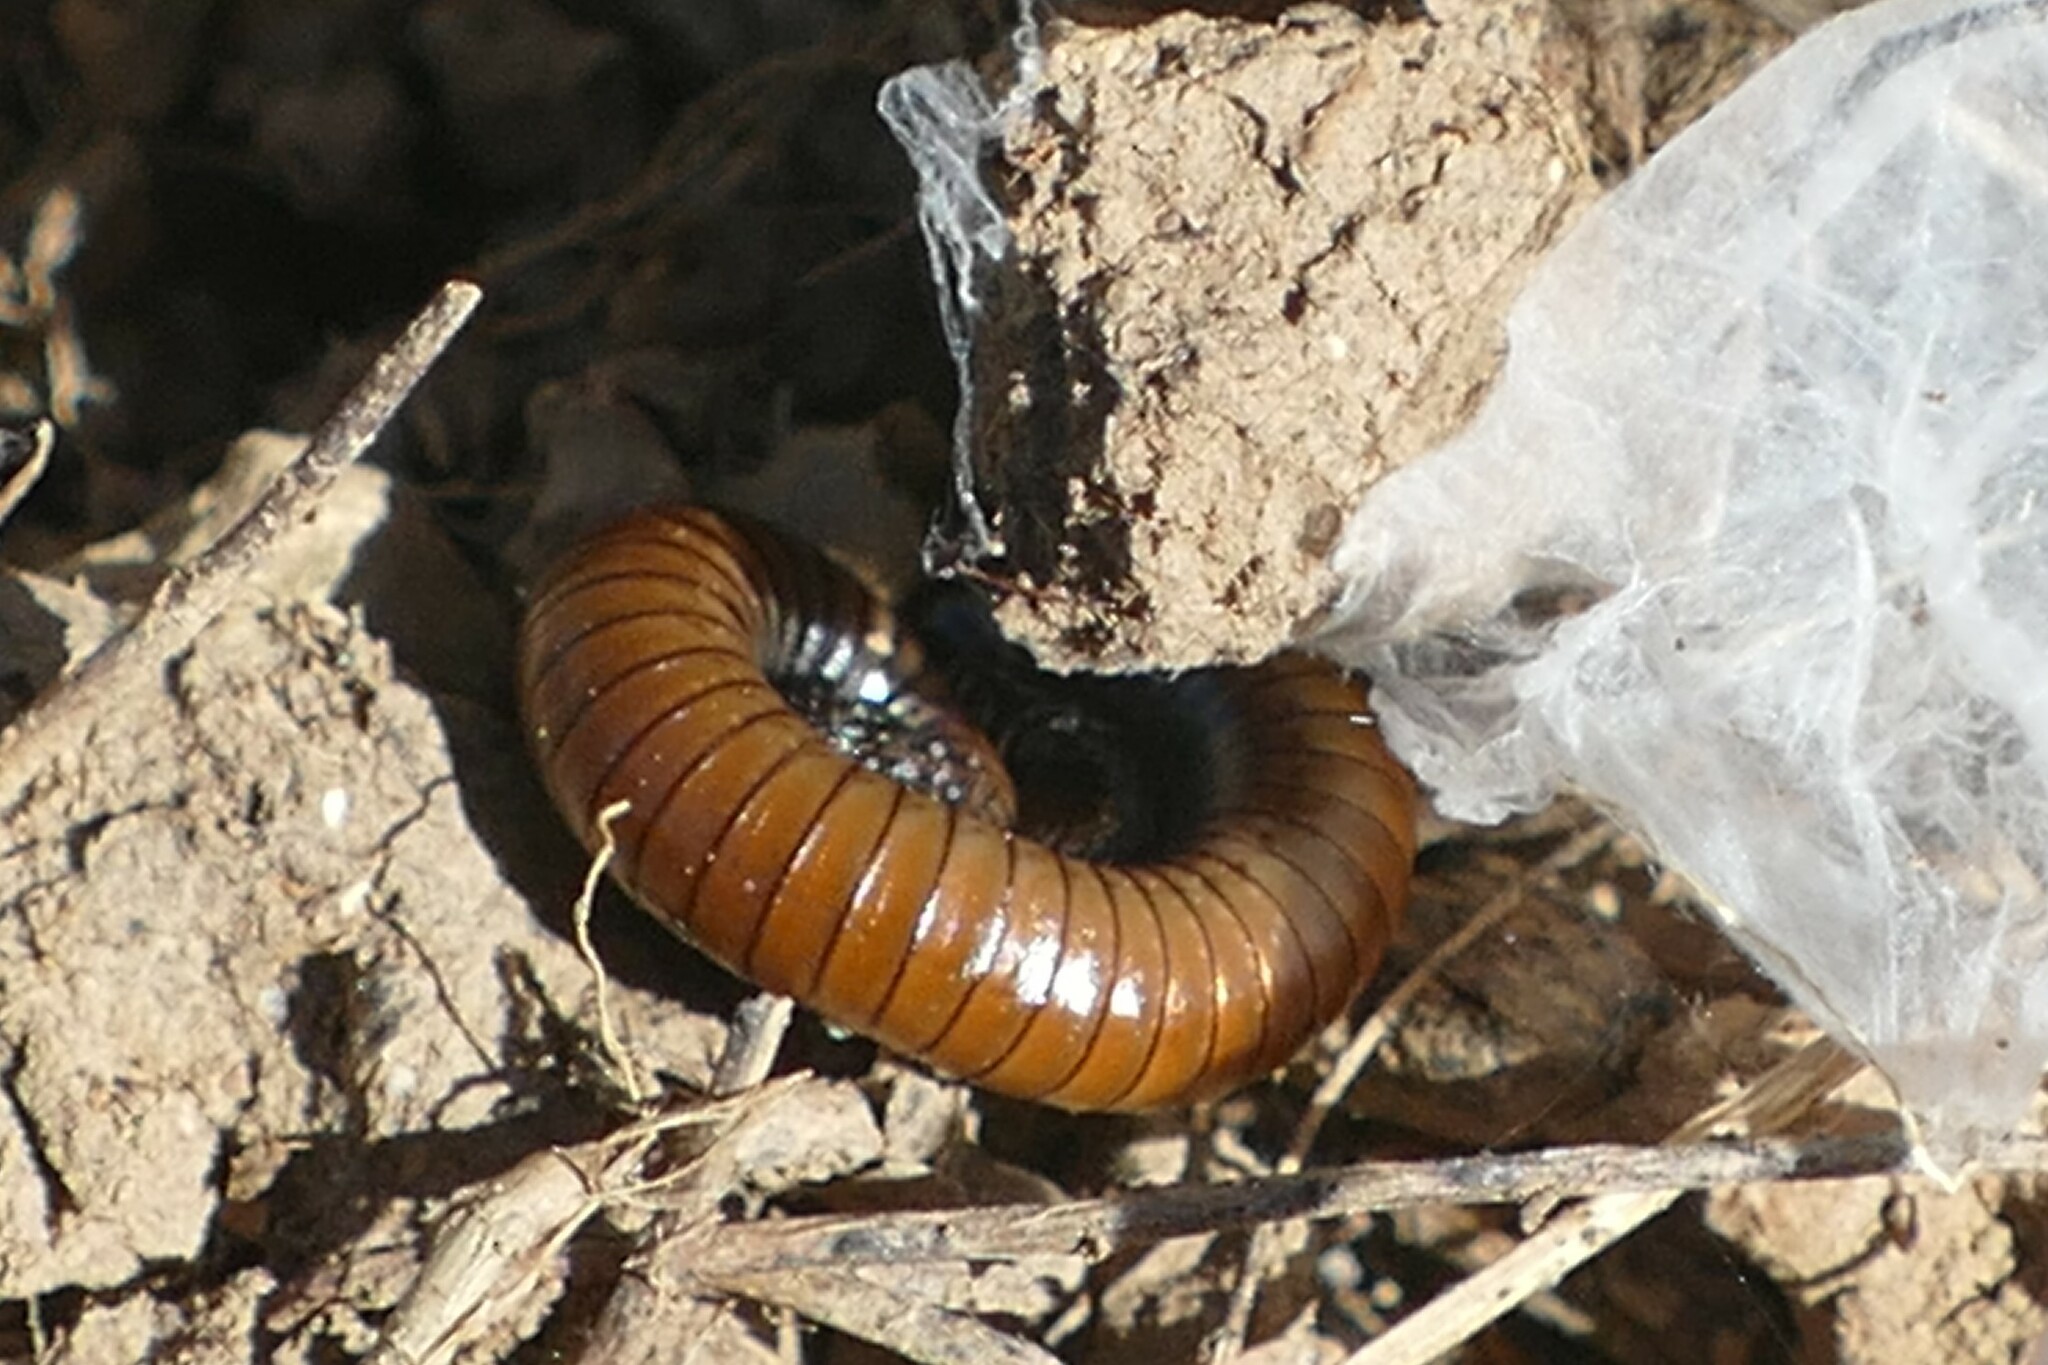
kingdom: Animalia
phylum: Arthropoda
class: Diplopoda
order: Julida
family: Julidae
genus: Ommatoiulus
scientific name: Ommatoiulus rutilans
